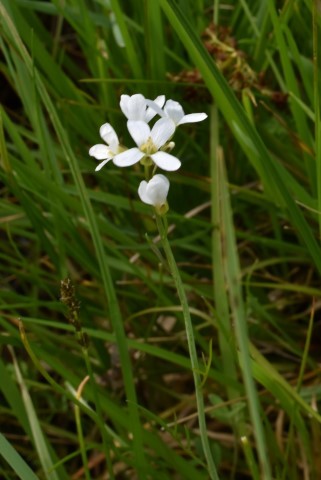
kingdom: Plantae
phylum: Tracheophyta
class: Magnoliopsida
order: Brassicales
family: Brassicaceae
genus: Cardamine
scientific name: Cardamine penduliflora
